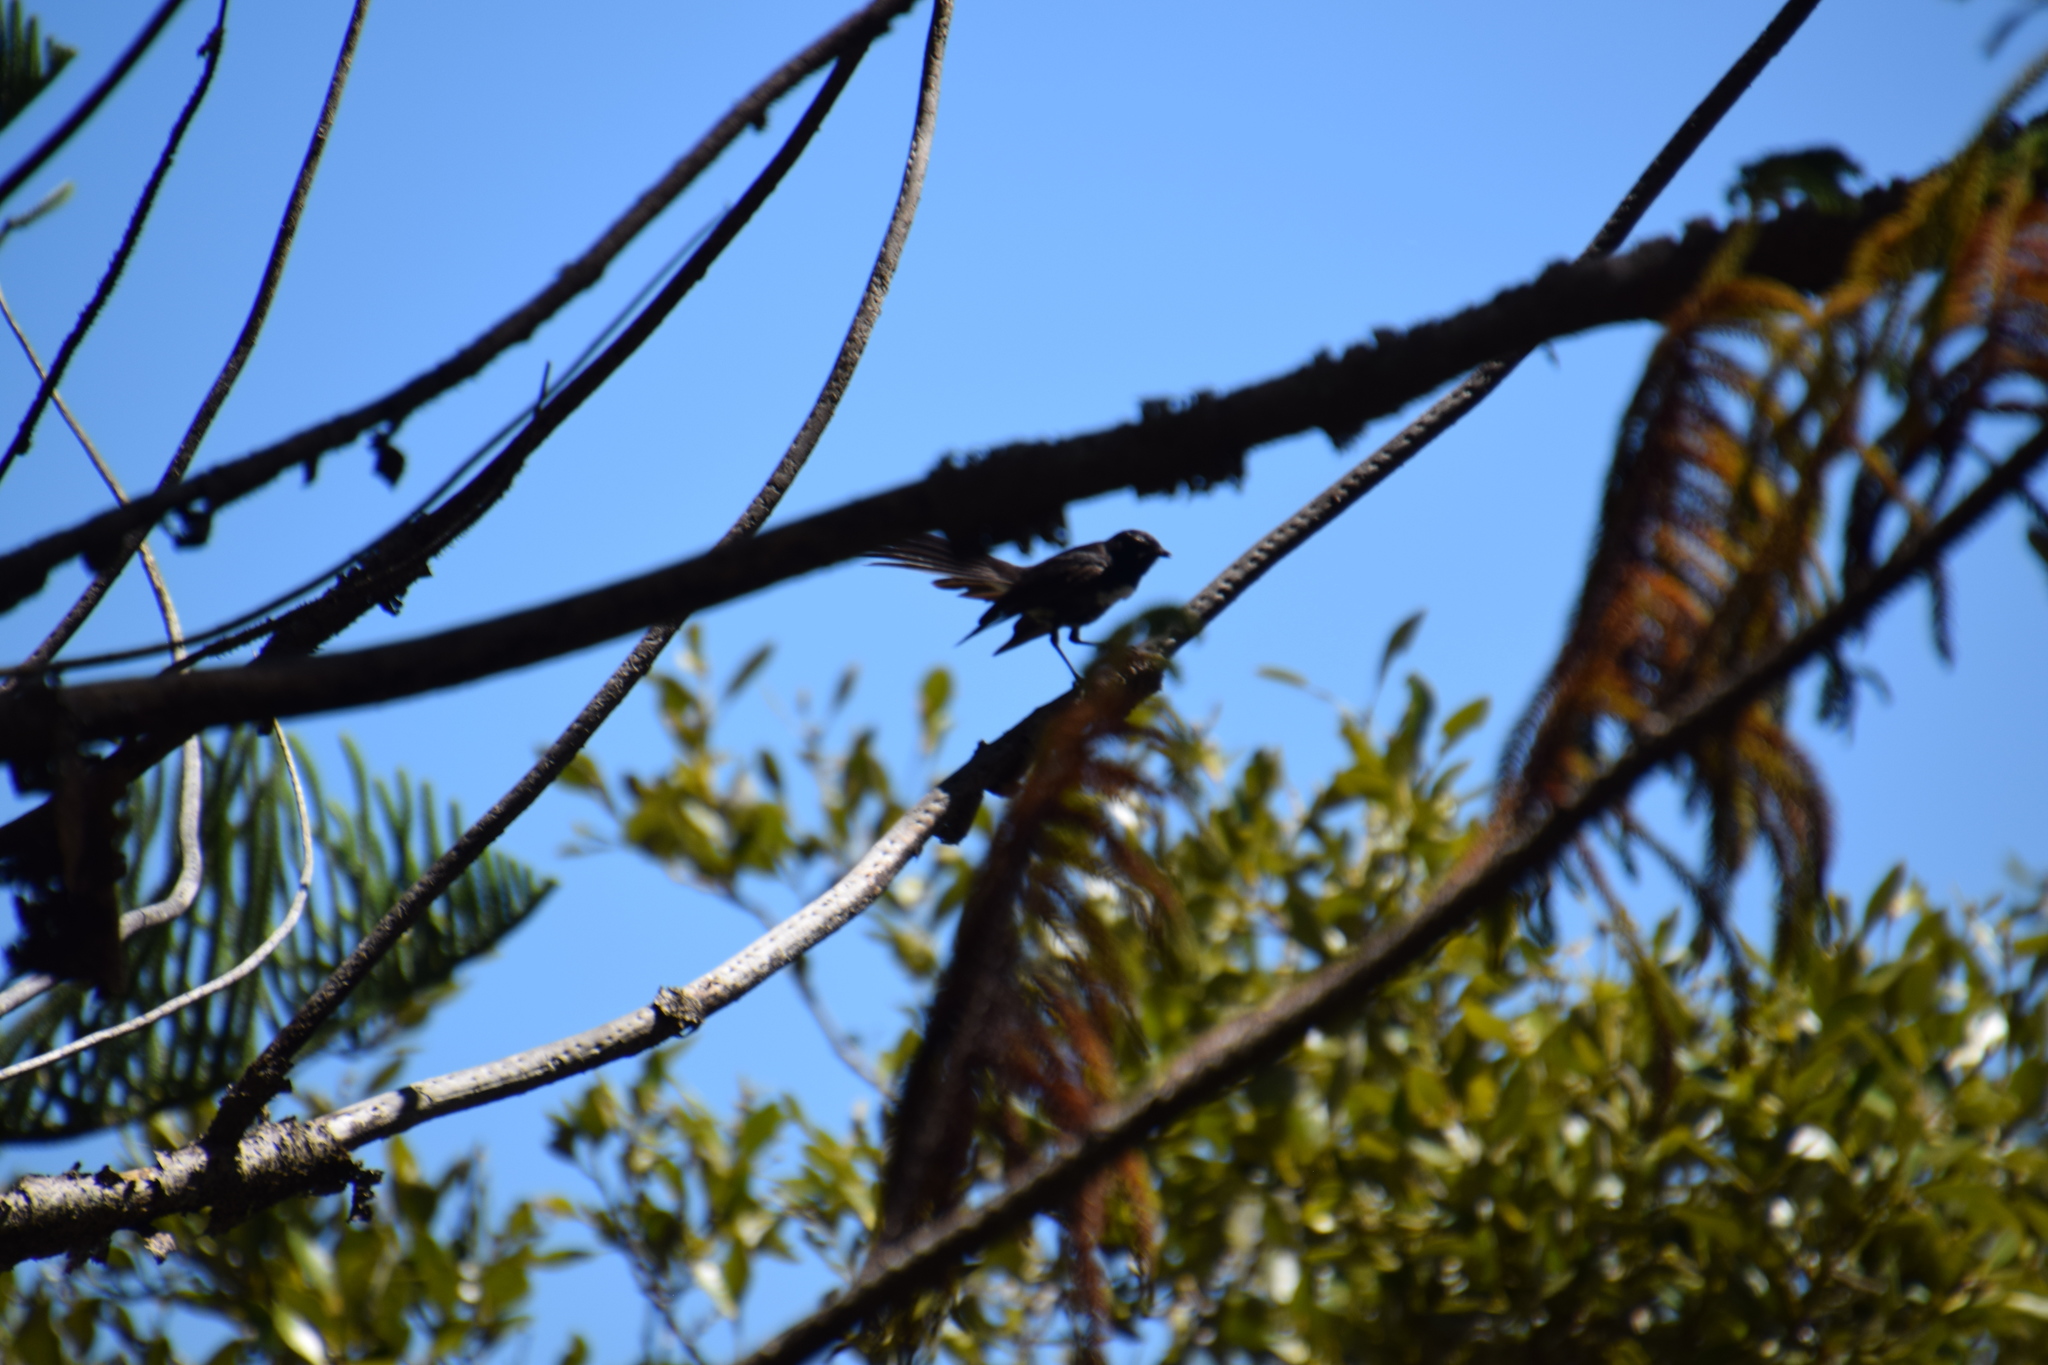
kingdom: Animalia
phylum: Chordata
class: Aves
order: Passeriformes
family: Rhipiduridae
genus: Rhipidura
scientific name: Rhipidura leucophrys
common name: Willie wagtail
